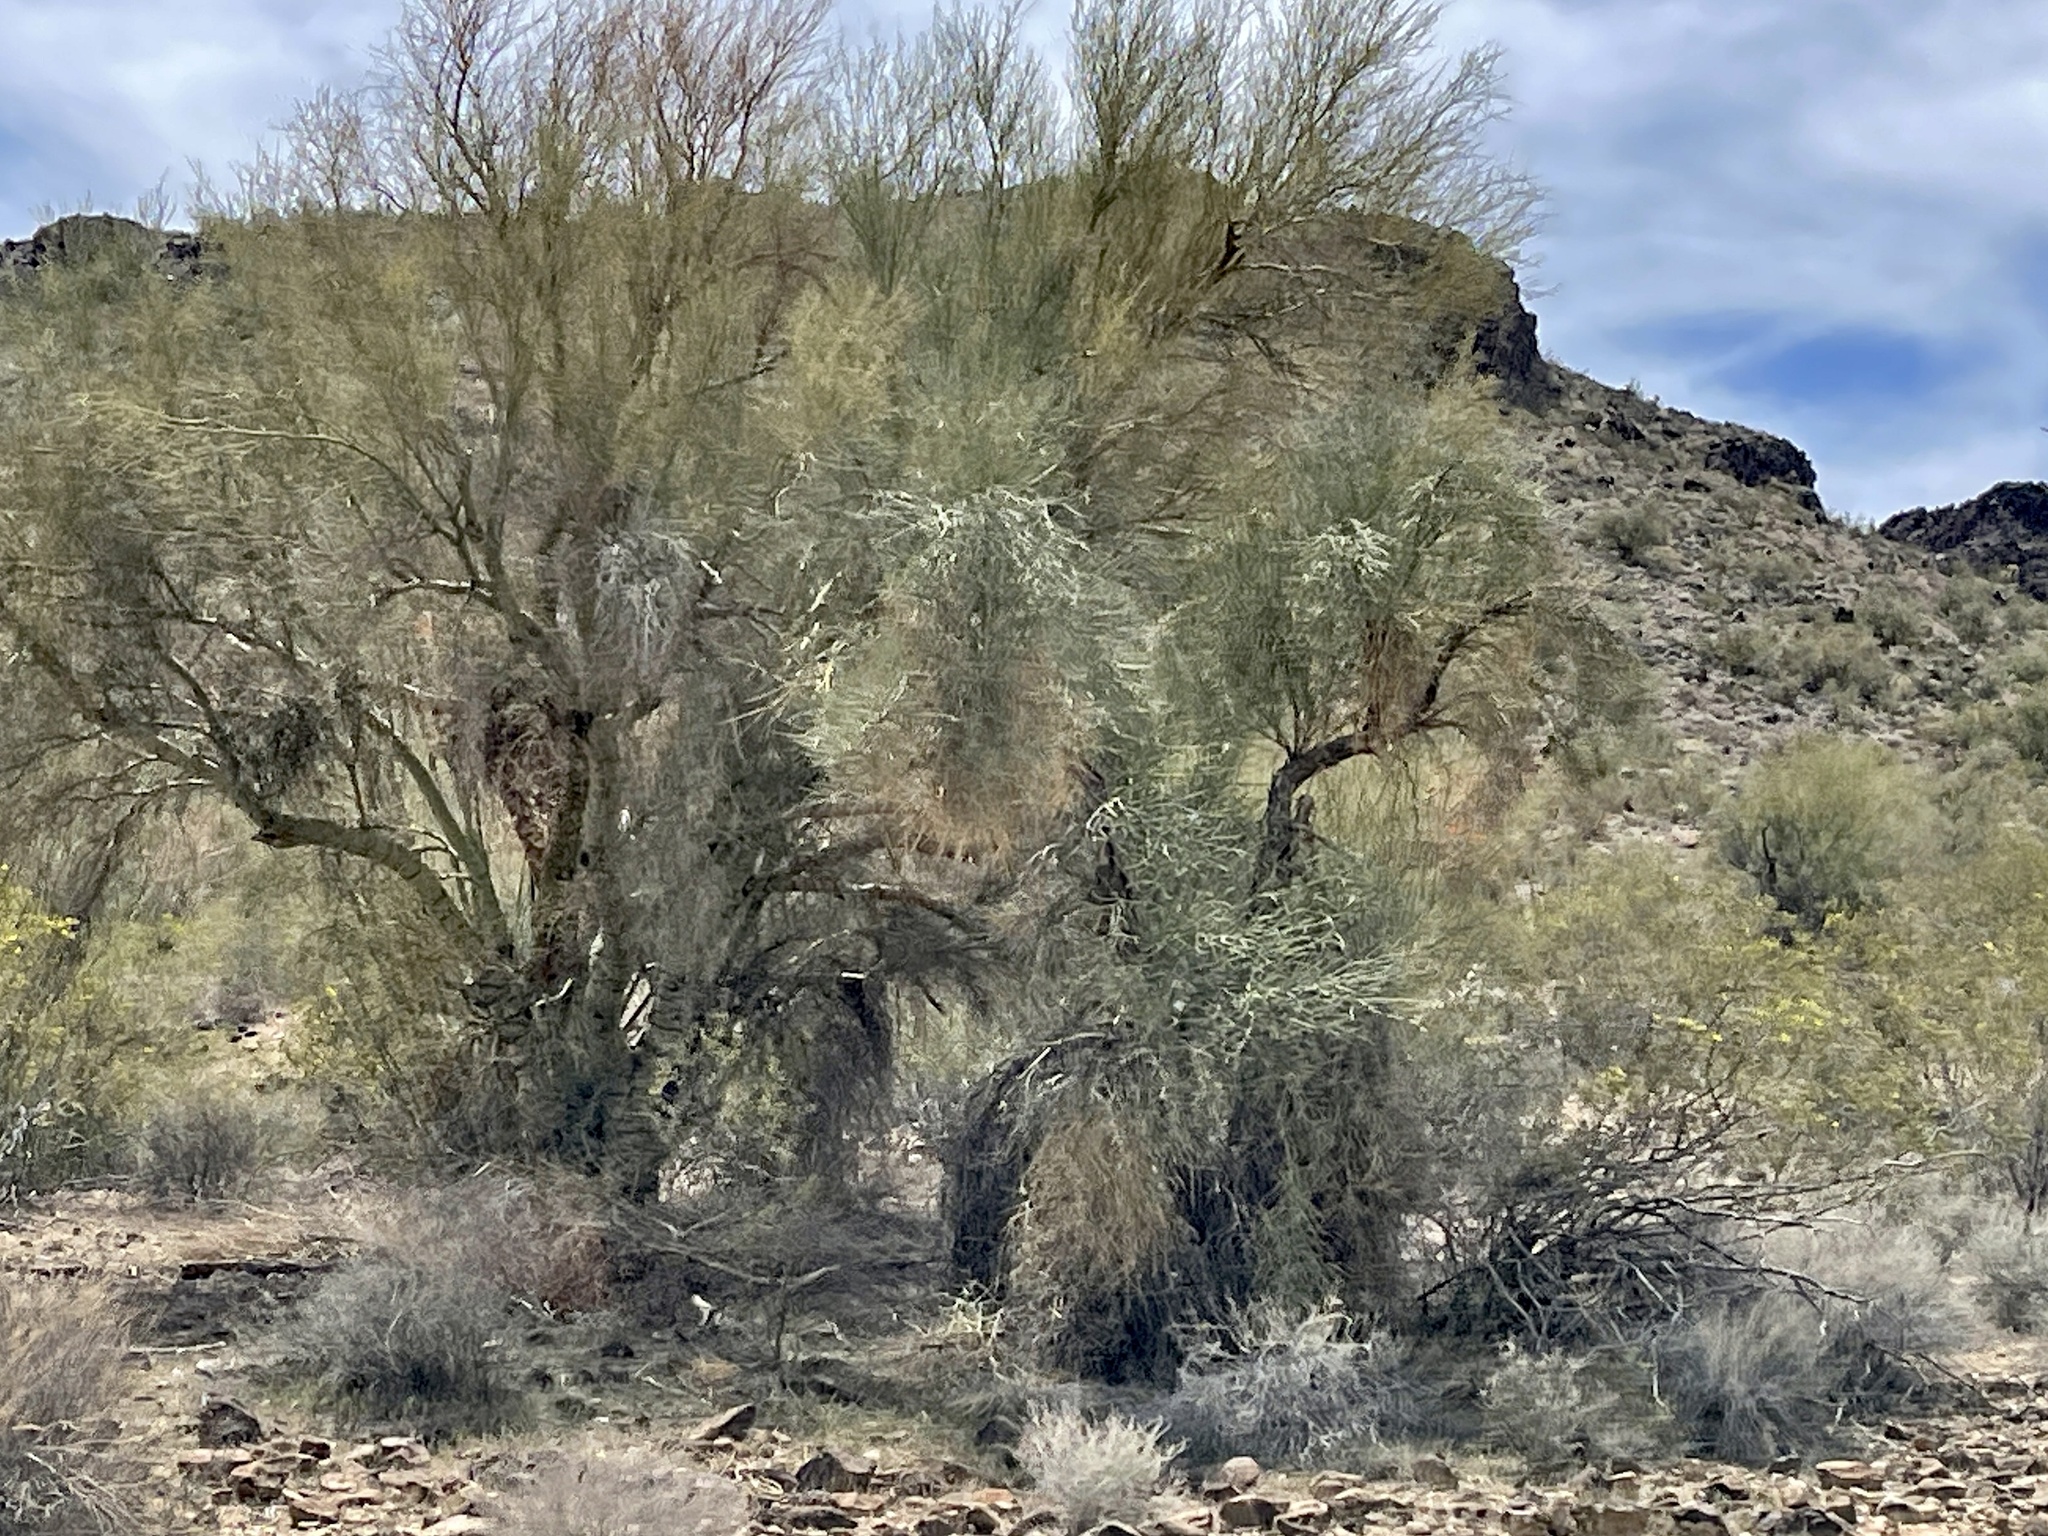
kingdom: Plantae
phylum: Tracheophyta
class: Magnoliopsida
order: Fabales
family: Fabaceae
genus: Parkinsonia
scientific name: Parkinsonia microphylla
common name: Yellow paloverde
